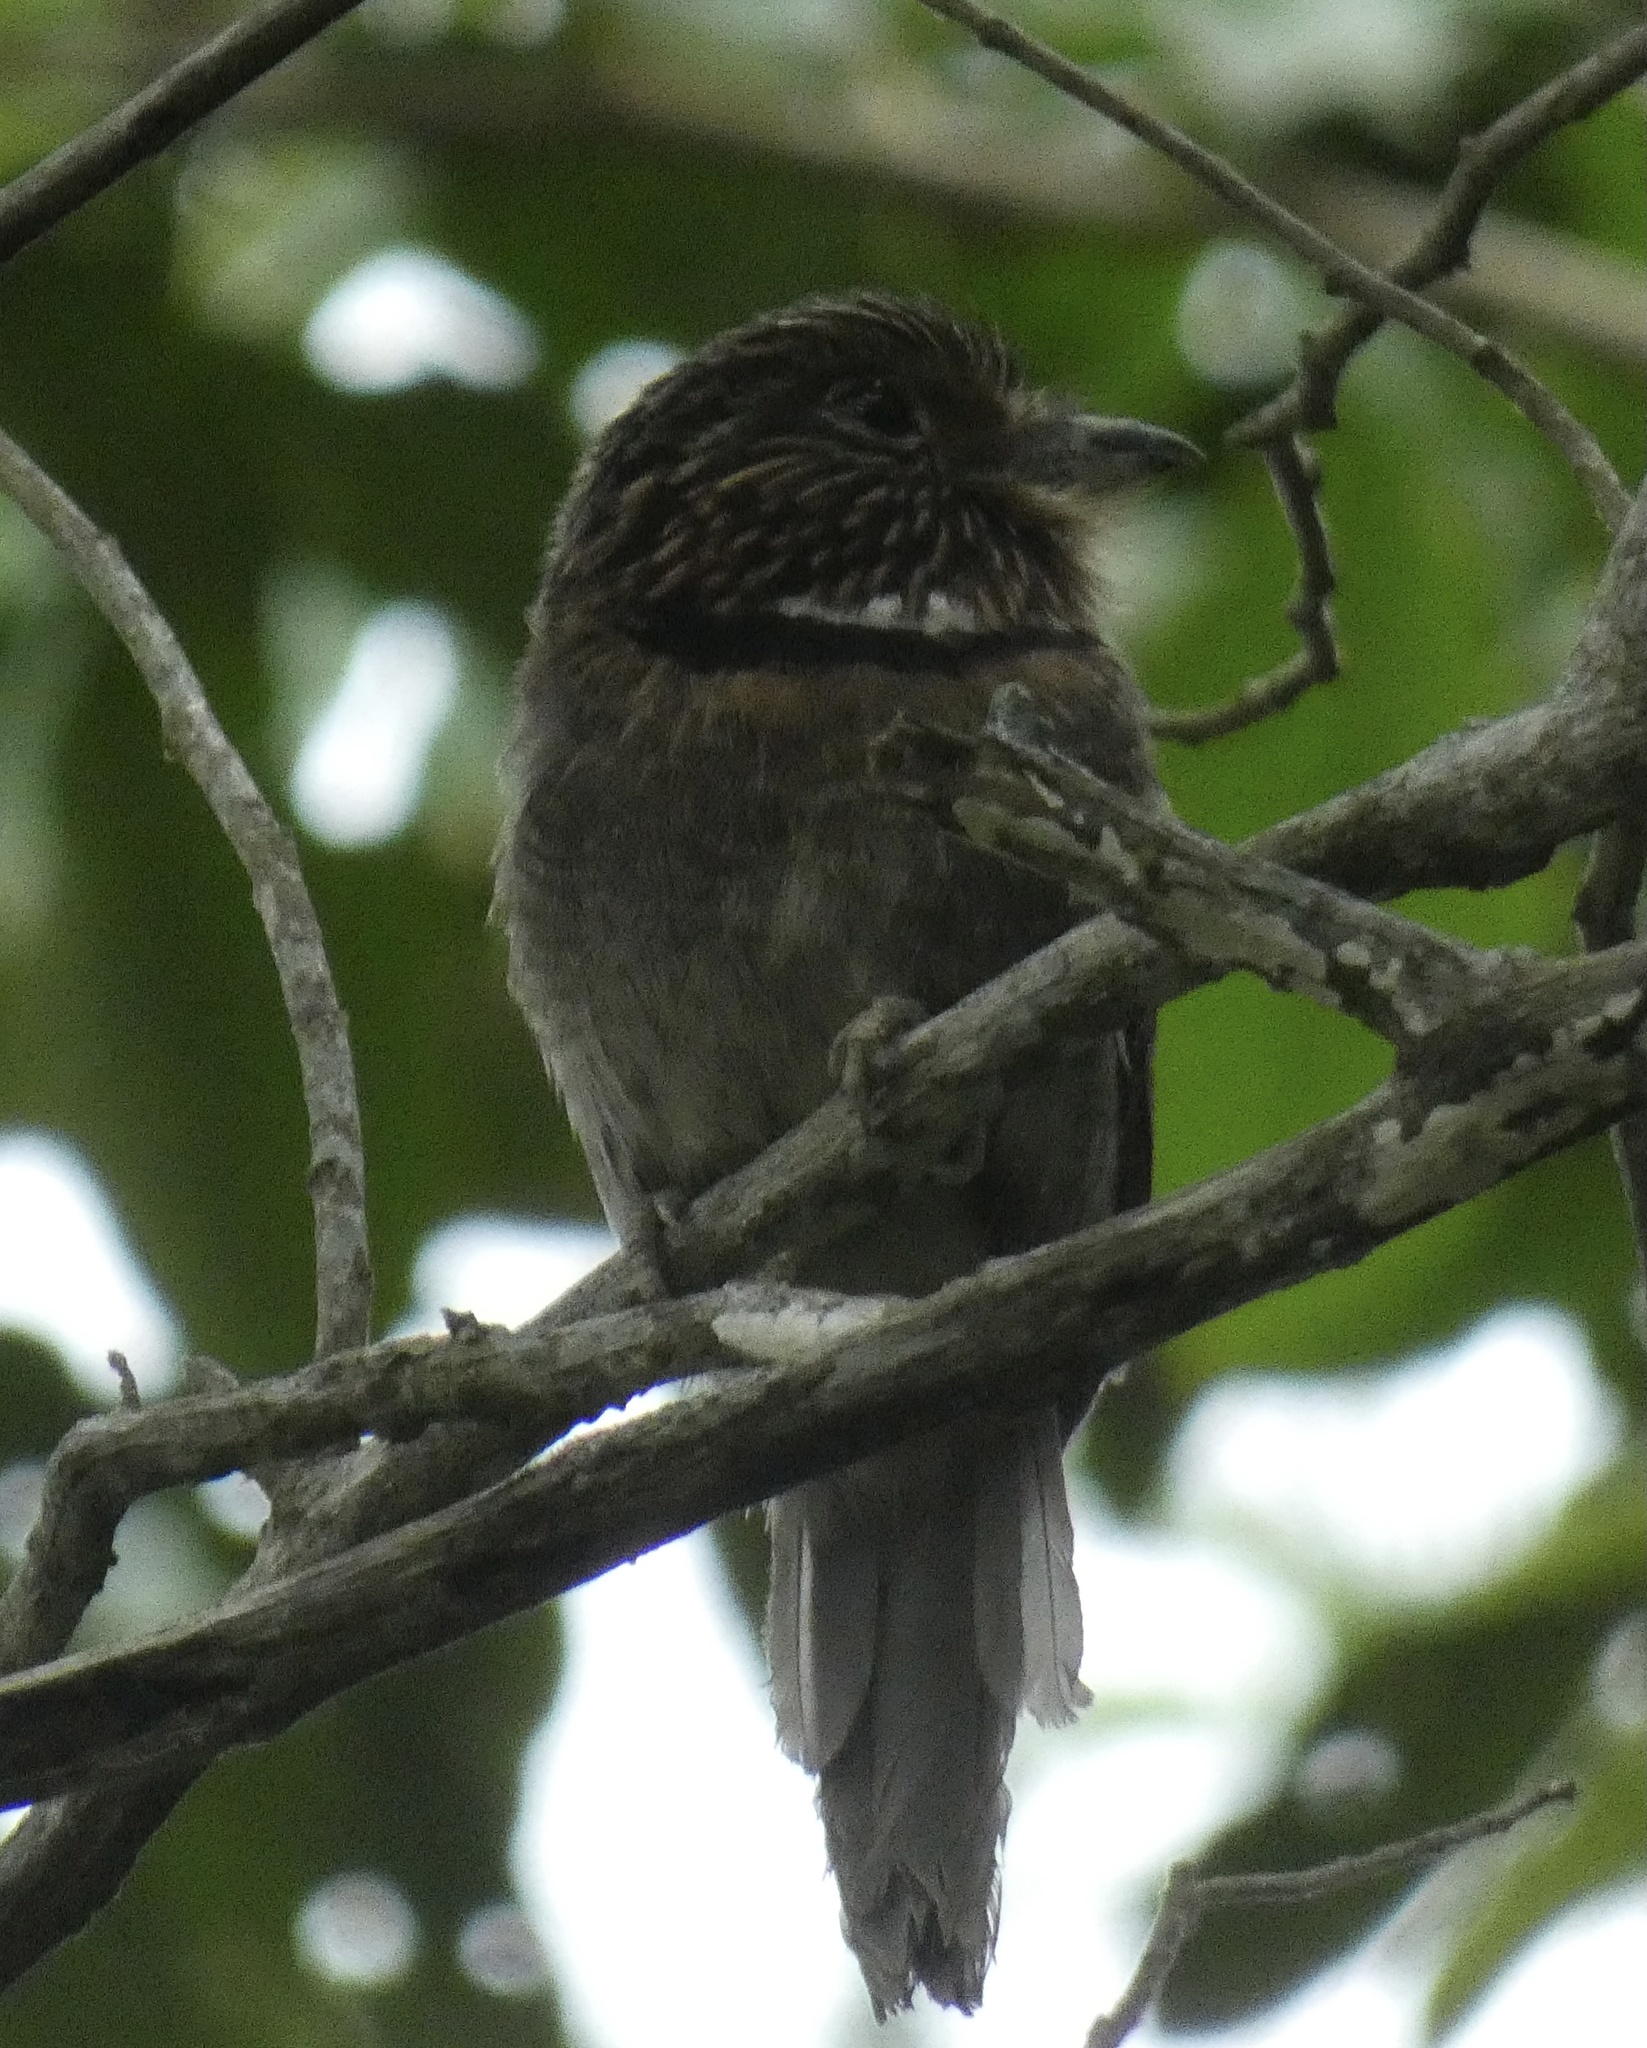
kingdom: Animalia
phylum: Chordata
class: Aves
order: Piciformes
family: Bucconidae
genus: Malacoptila
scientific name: Malacoptila striata
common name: Crescent-chested puffbird
